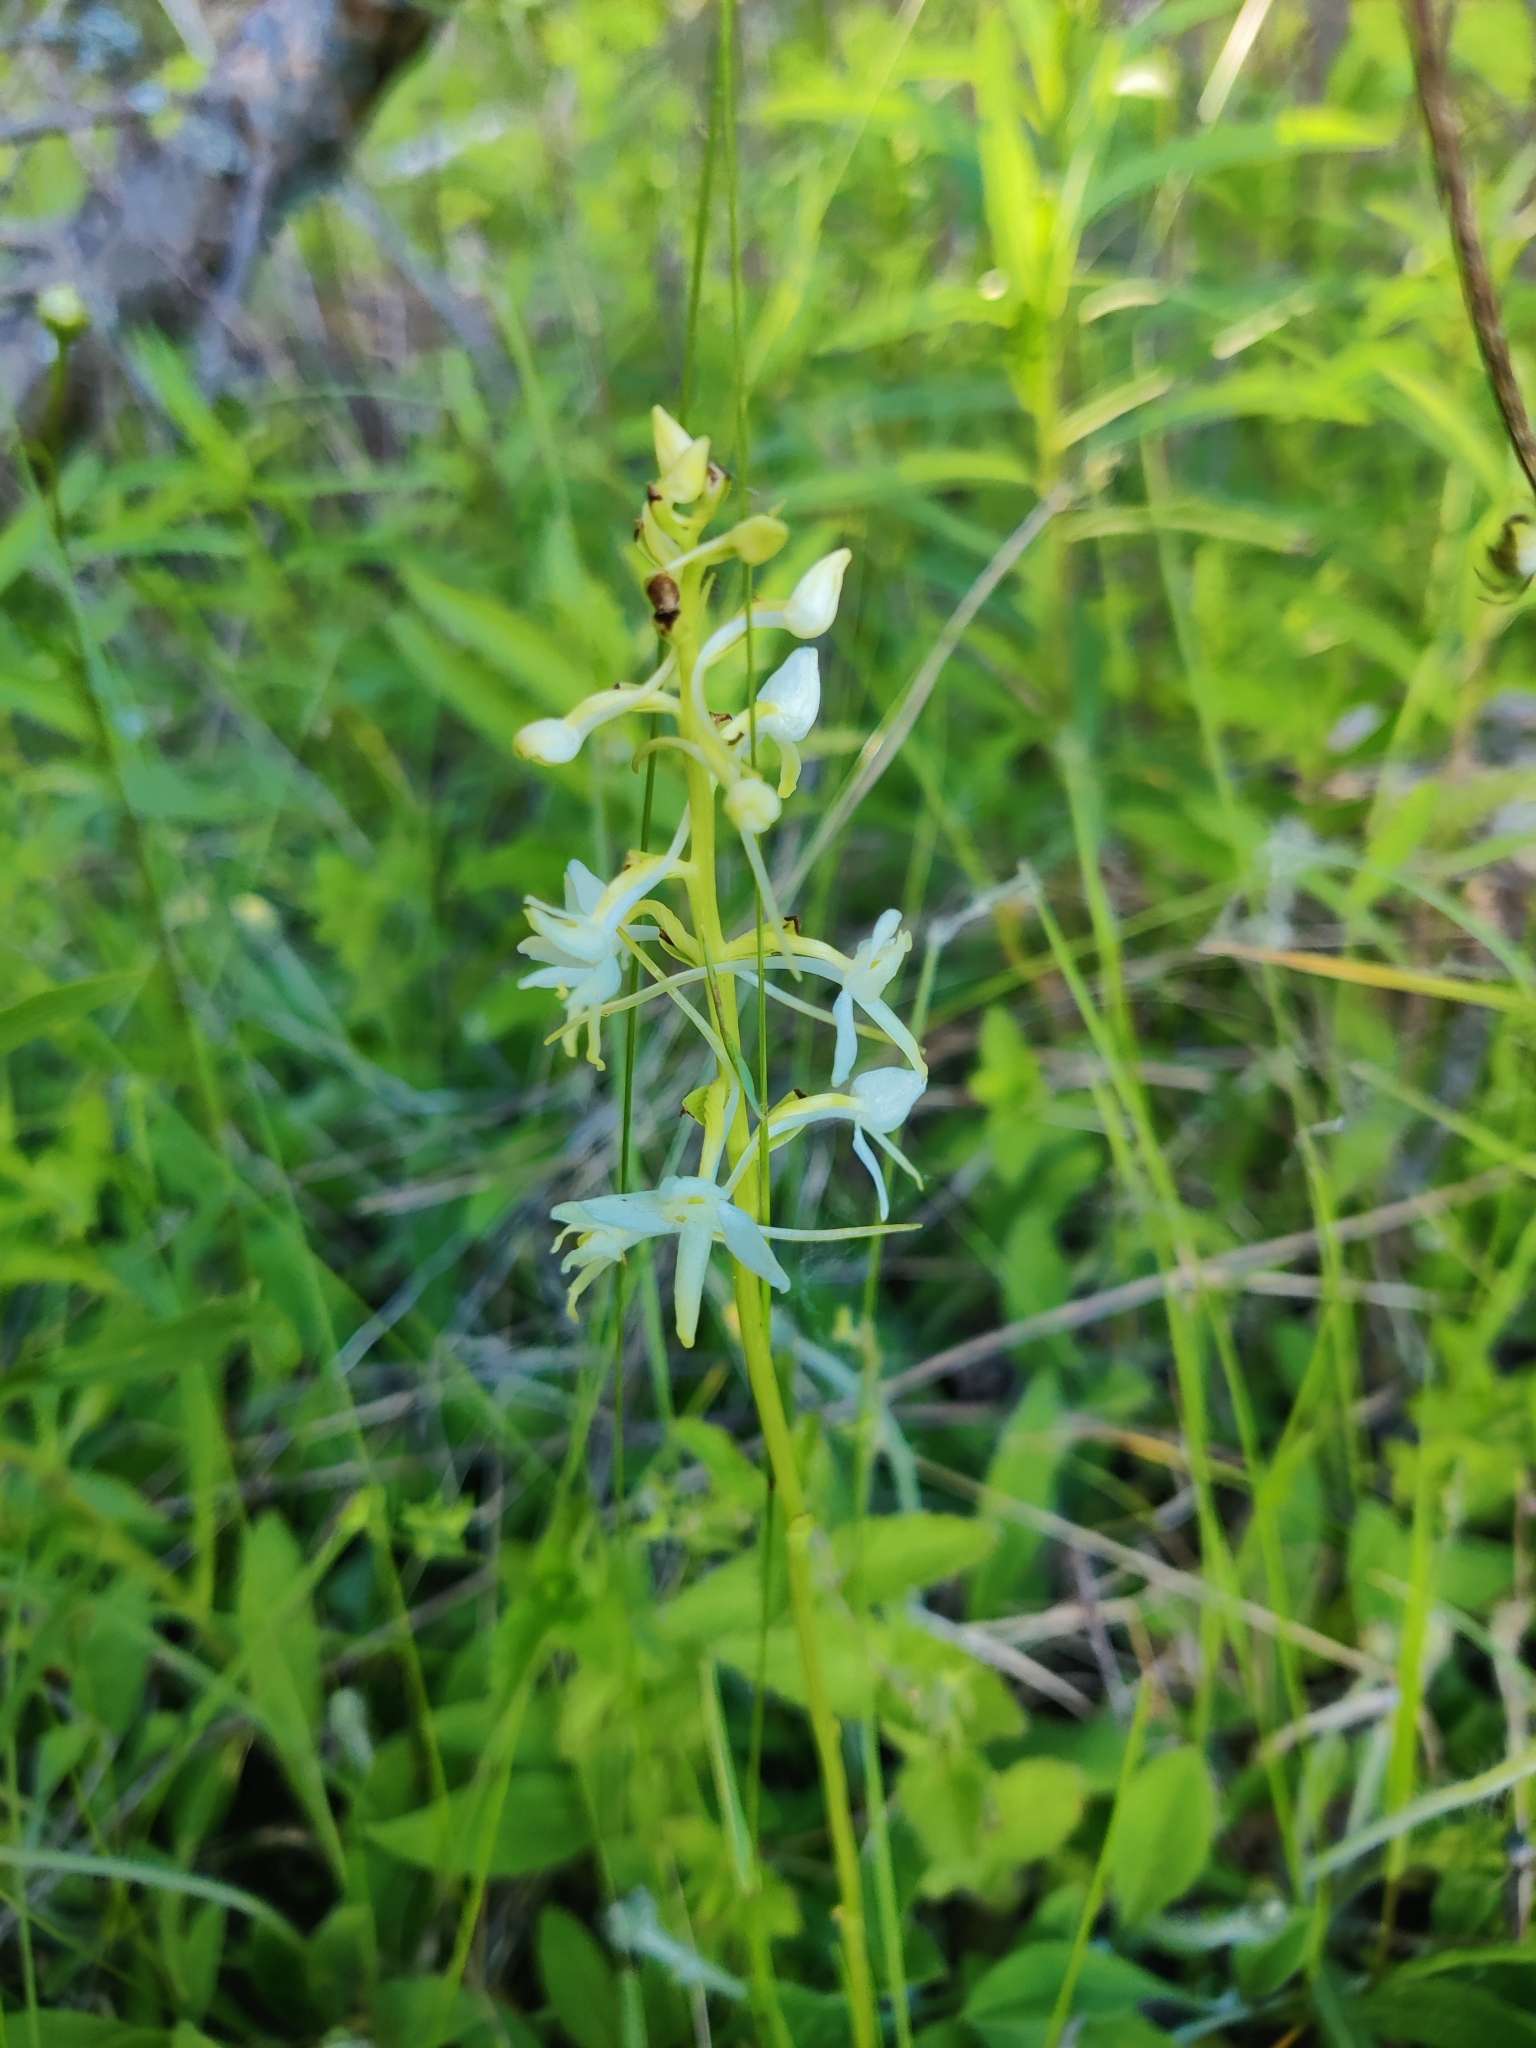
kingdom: Plantae
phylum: Tracheophyta
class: Liliopsida
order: Asparagales
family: Orchidaceae
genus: Platanthera
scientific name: Platanthera bifolia
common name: Lesser butterfly-orchid
